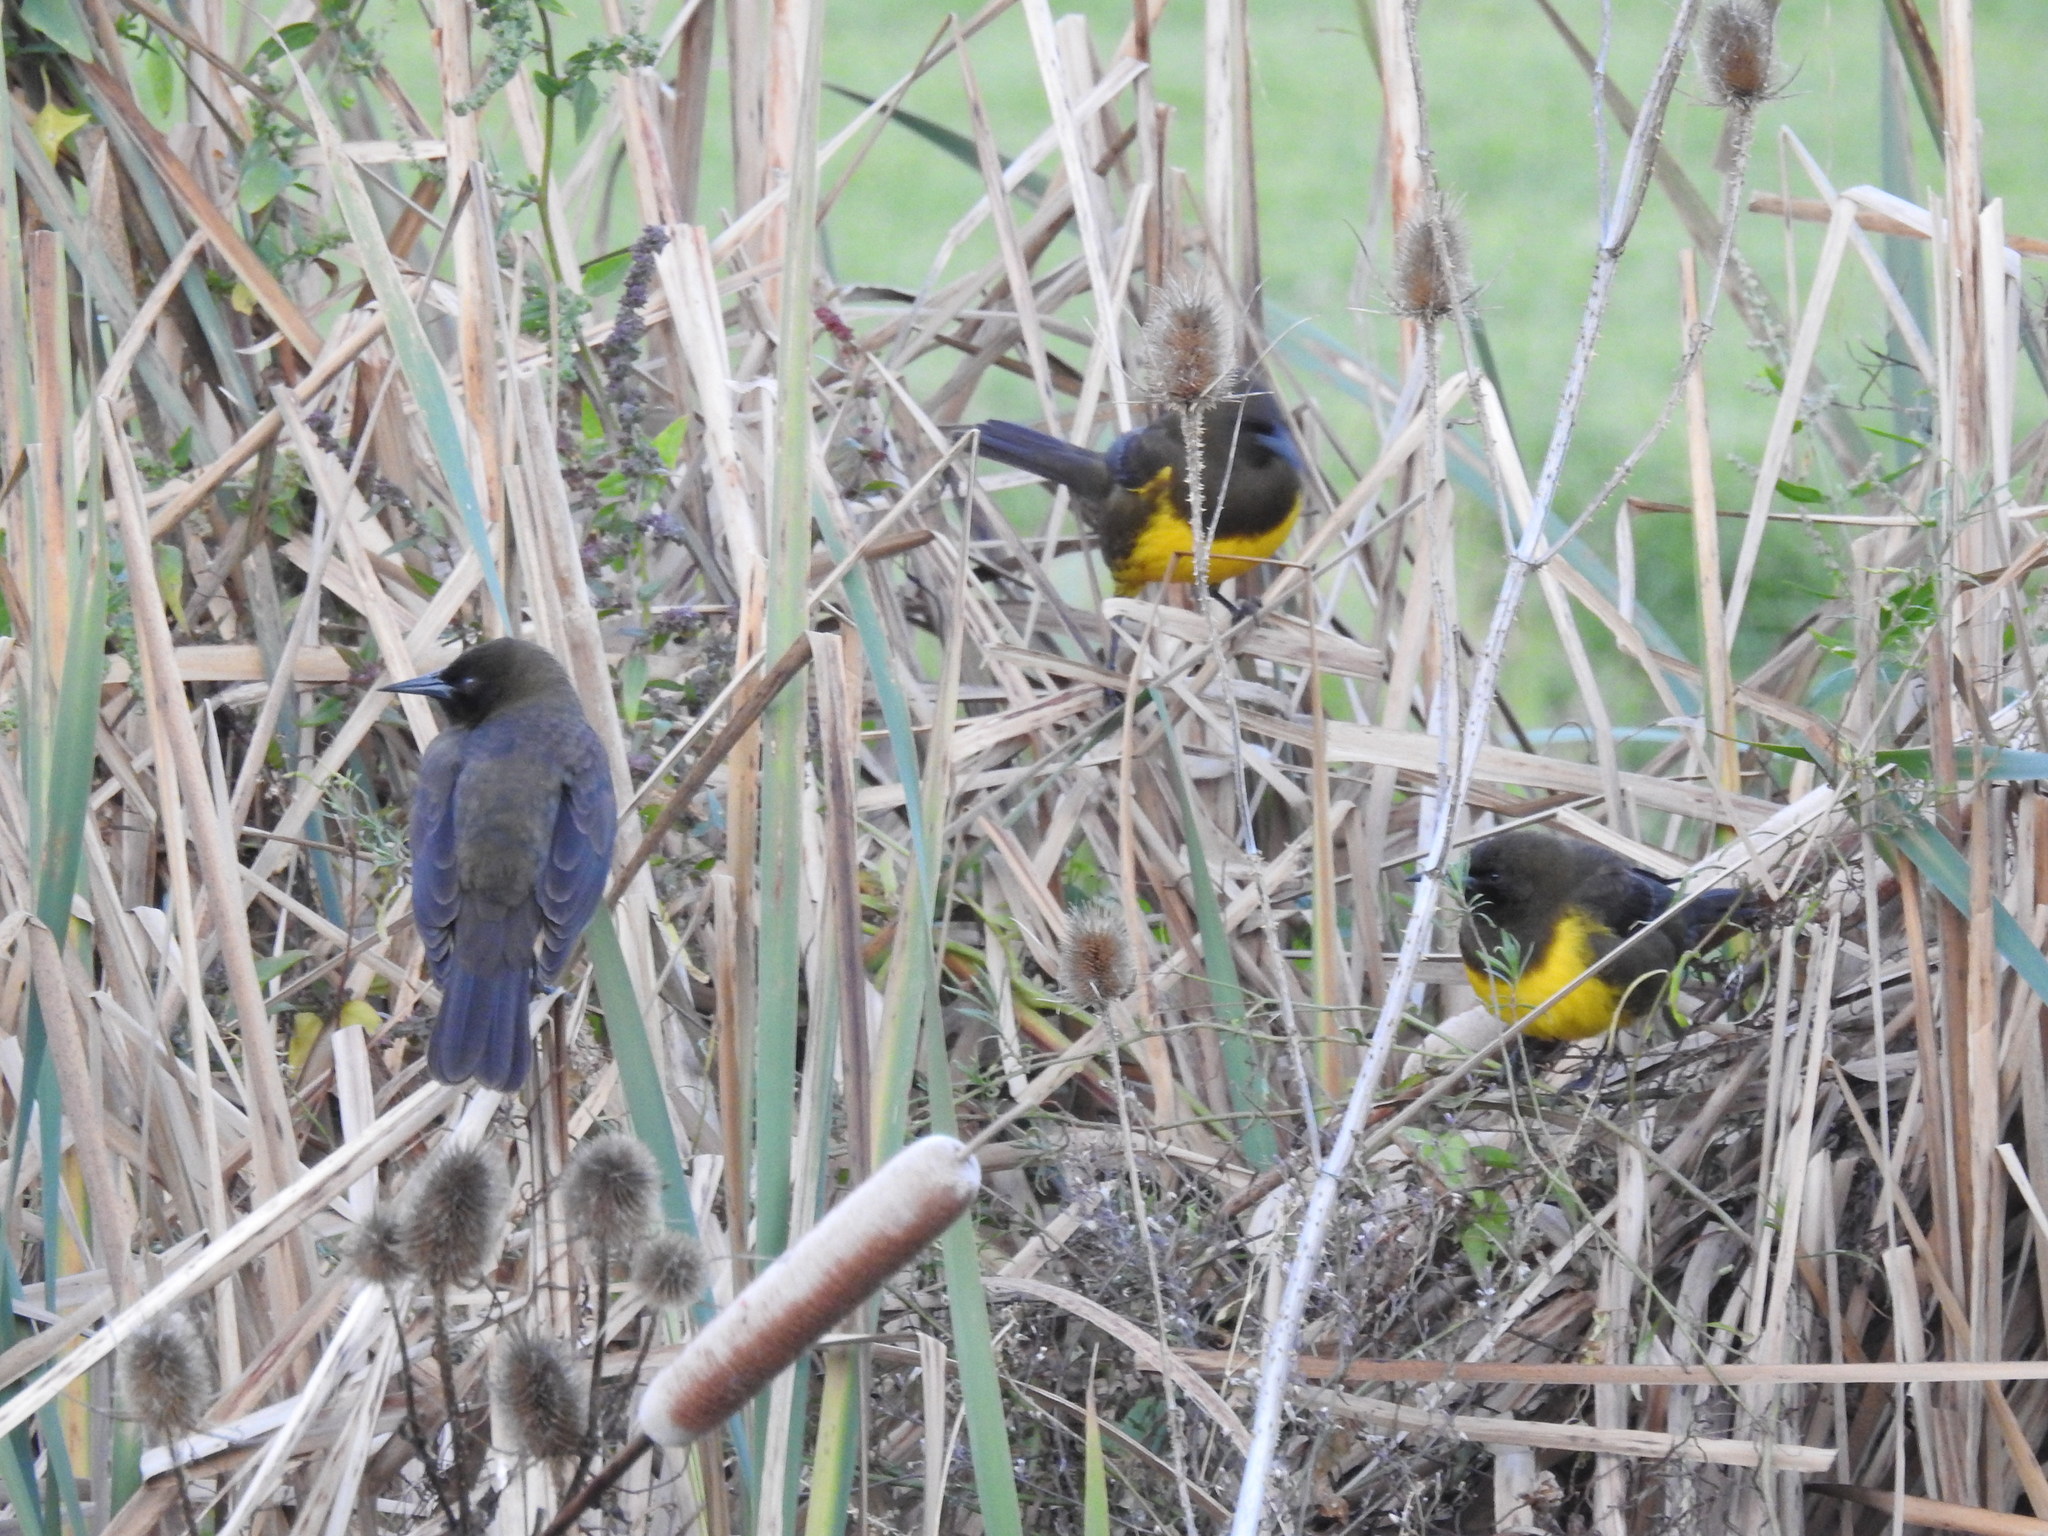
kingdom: Animalia
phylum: Chordata
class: Aves
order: Passeriformes
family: Icteridae
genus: Pseudoleistes
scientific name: Pseudoleistes virescens
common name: Brown-and-yellow marshbird
